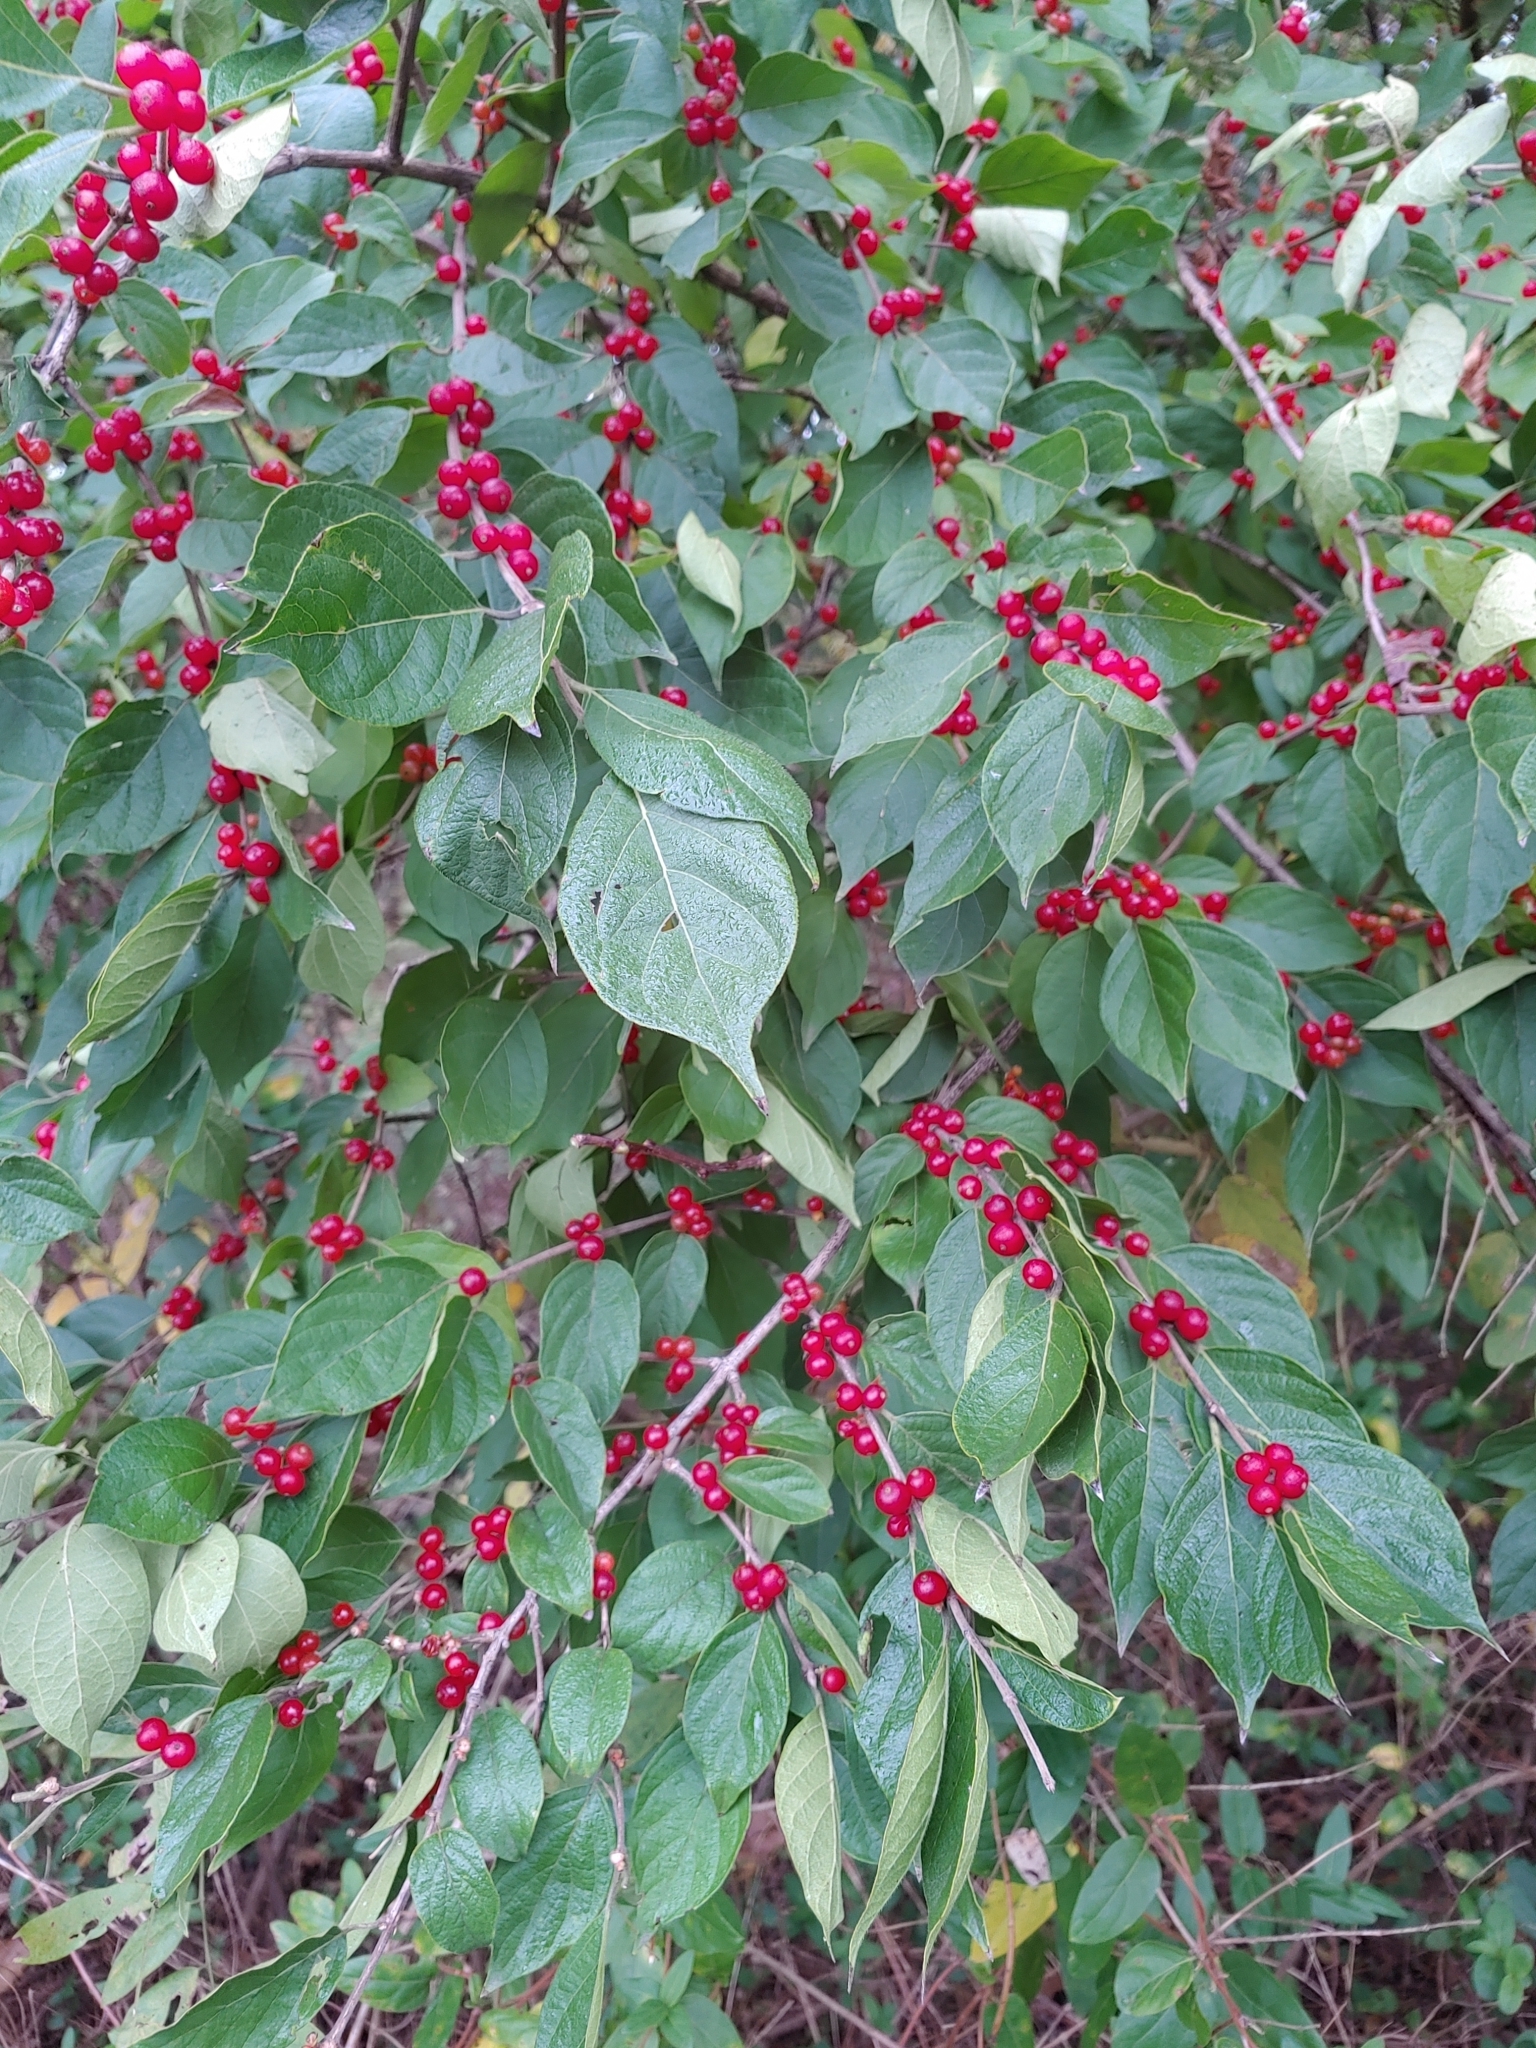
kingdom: Plantae
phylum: Tracheophyta
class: Magnoliopsida
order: Dipsacales
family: Caprifoliaceae
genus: Lonicera
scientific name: Lonicera maackii
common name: Amur honeysuckle
